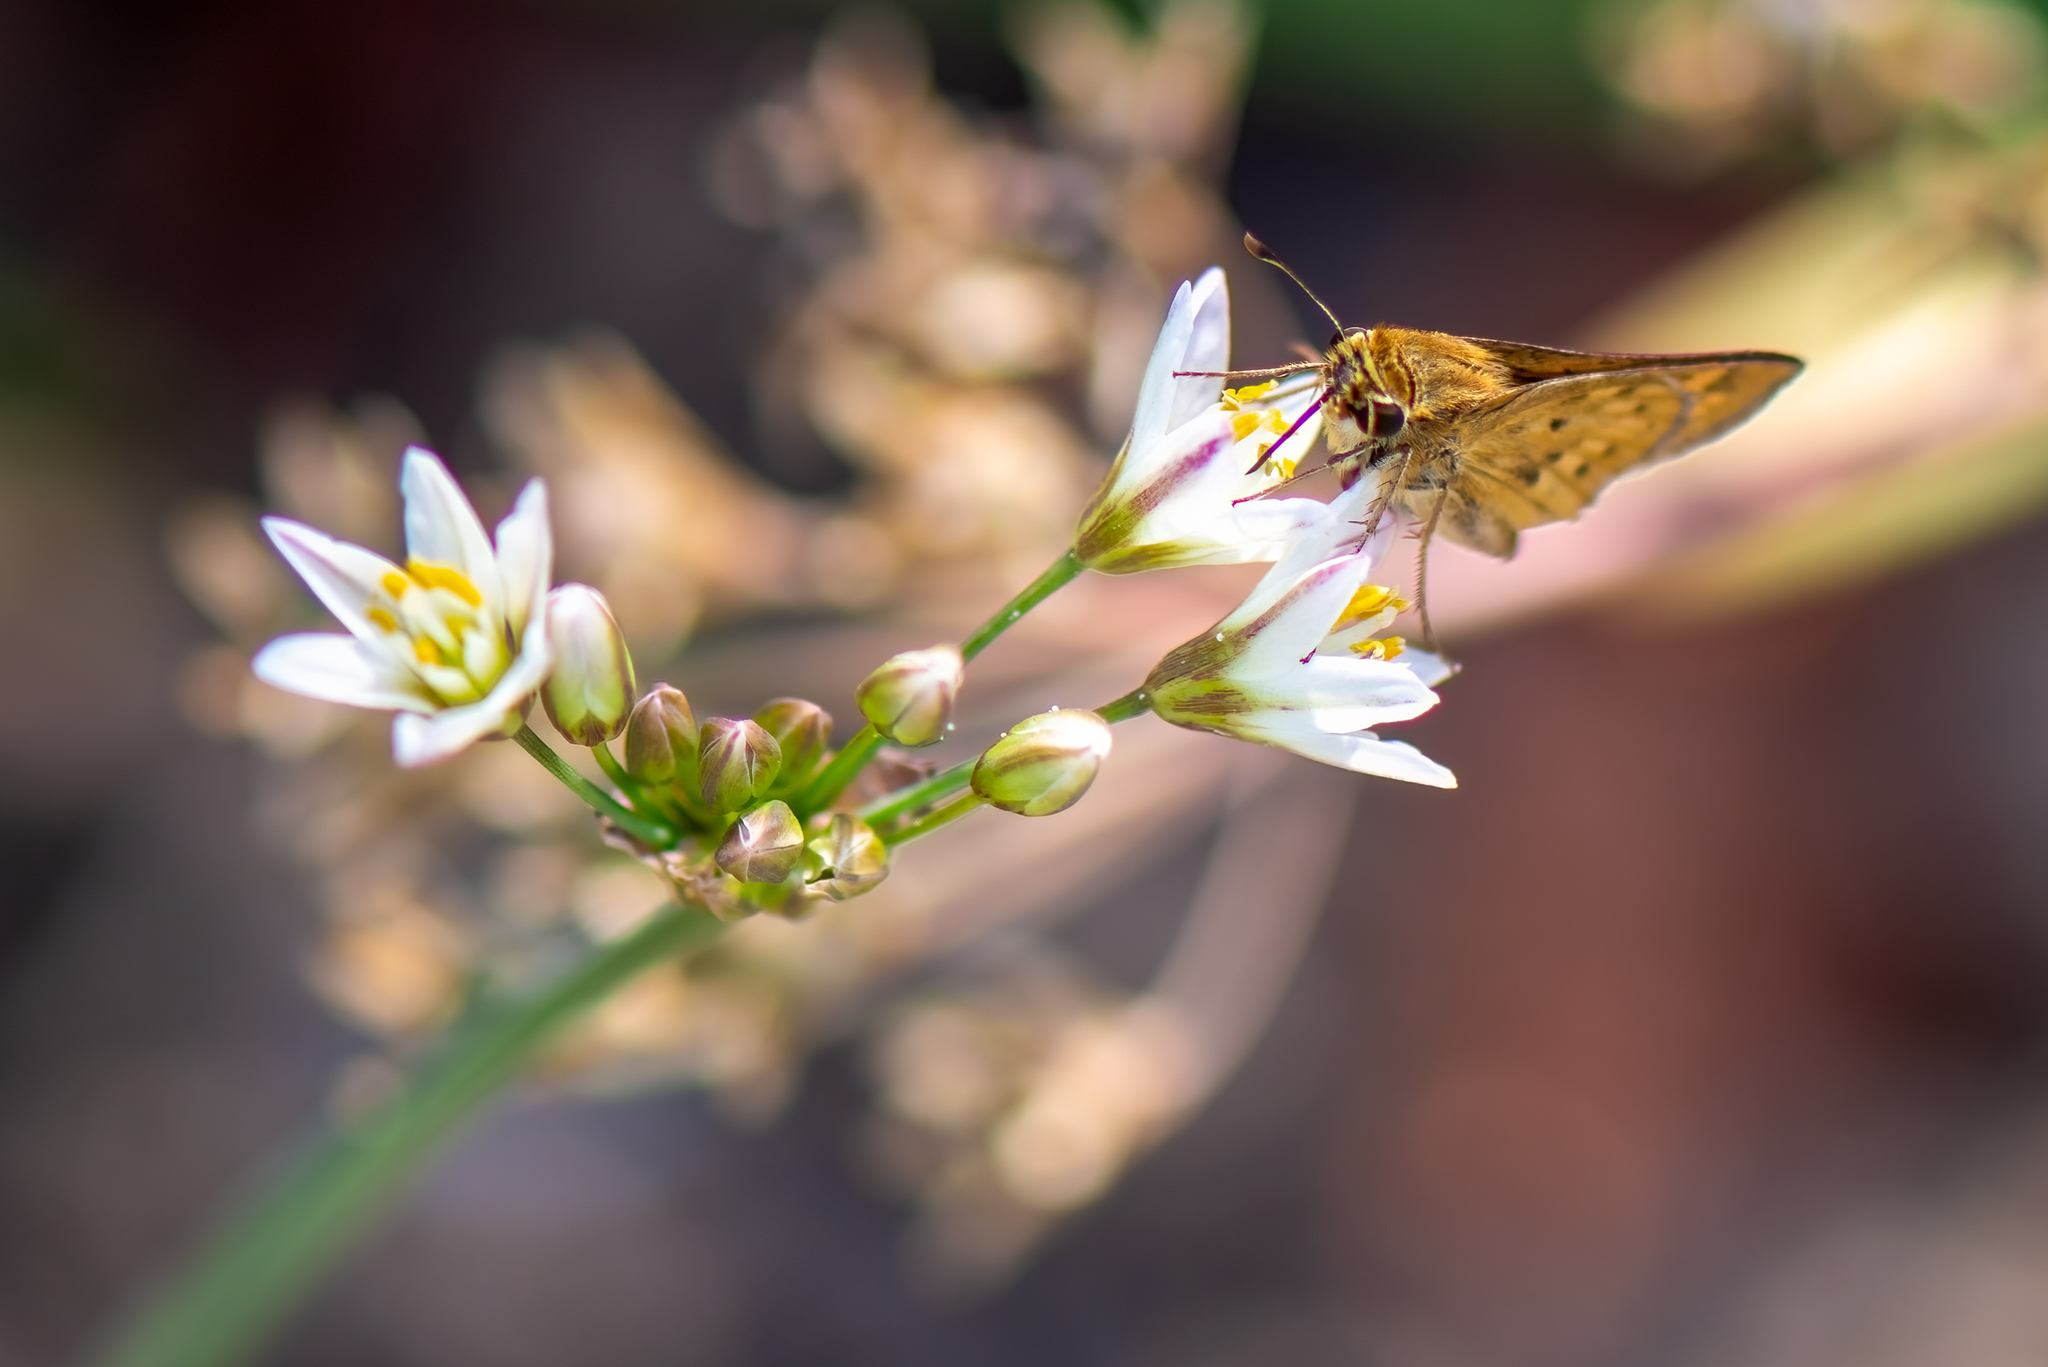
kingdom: Animalia
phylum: Arthropoda
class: Insecta
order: Lepidoptera
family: Hesperiidae
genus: Hylephila
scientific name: Hylephila phyleus
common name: Fiery skipper
